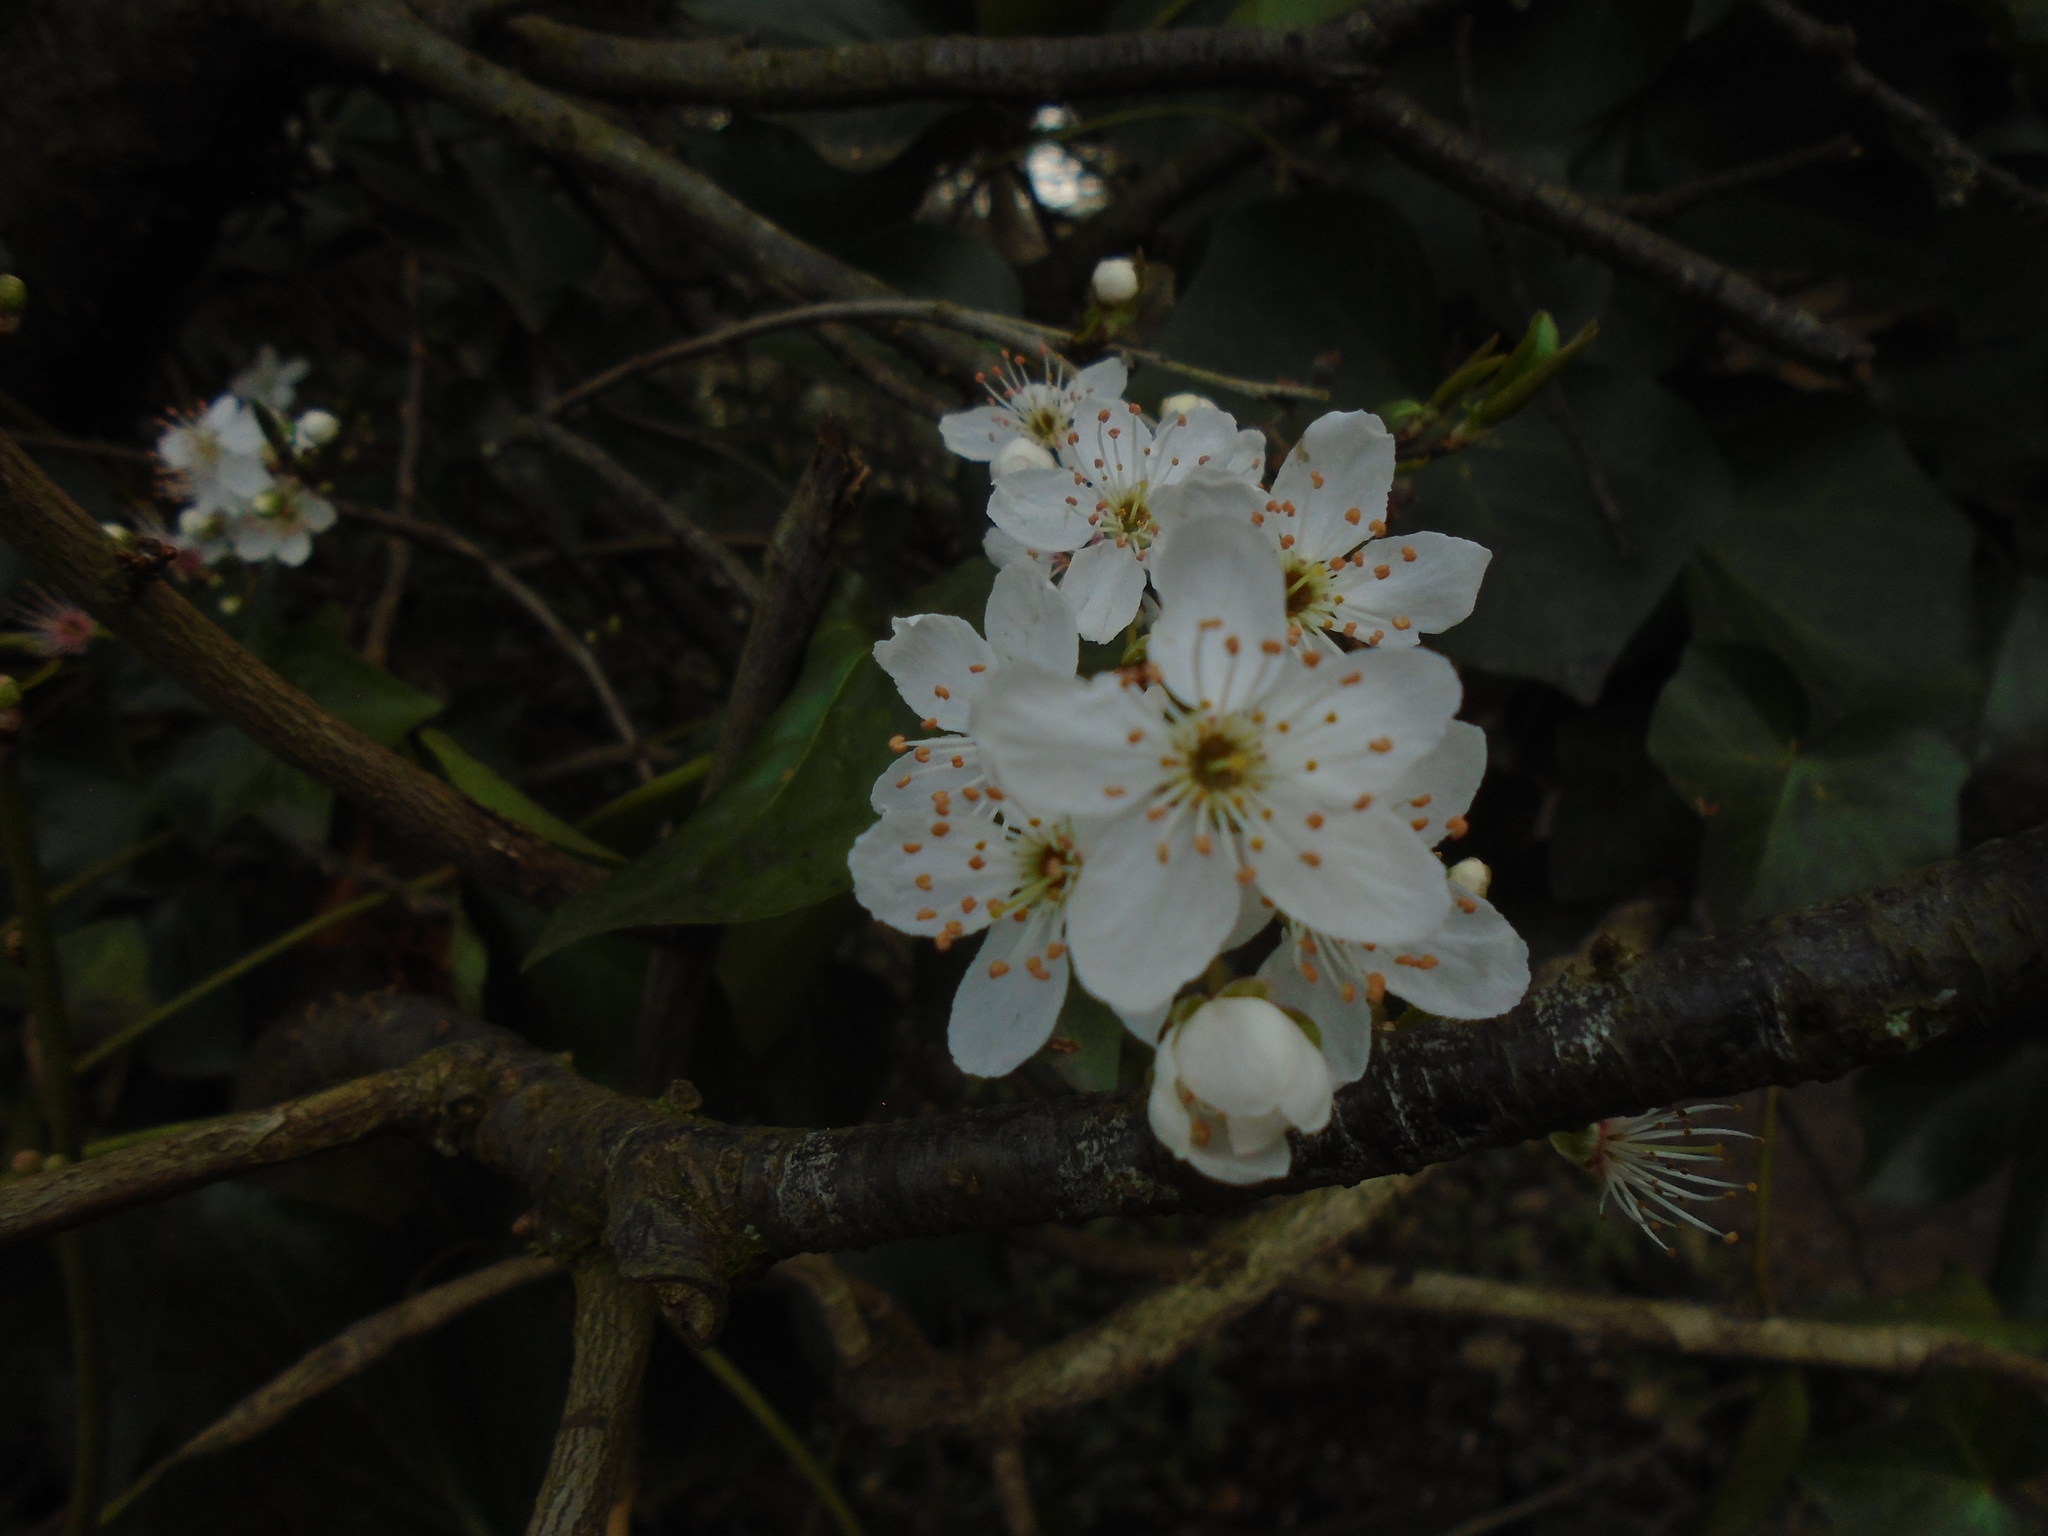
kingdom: Plantae
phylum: Tracheophyta
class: Magnoliopsida
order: Rosales
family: Rosaceae
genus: Prunus
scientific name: Prunus cerasifera
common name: Cherry plum
